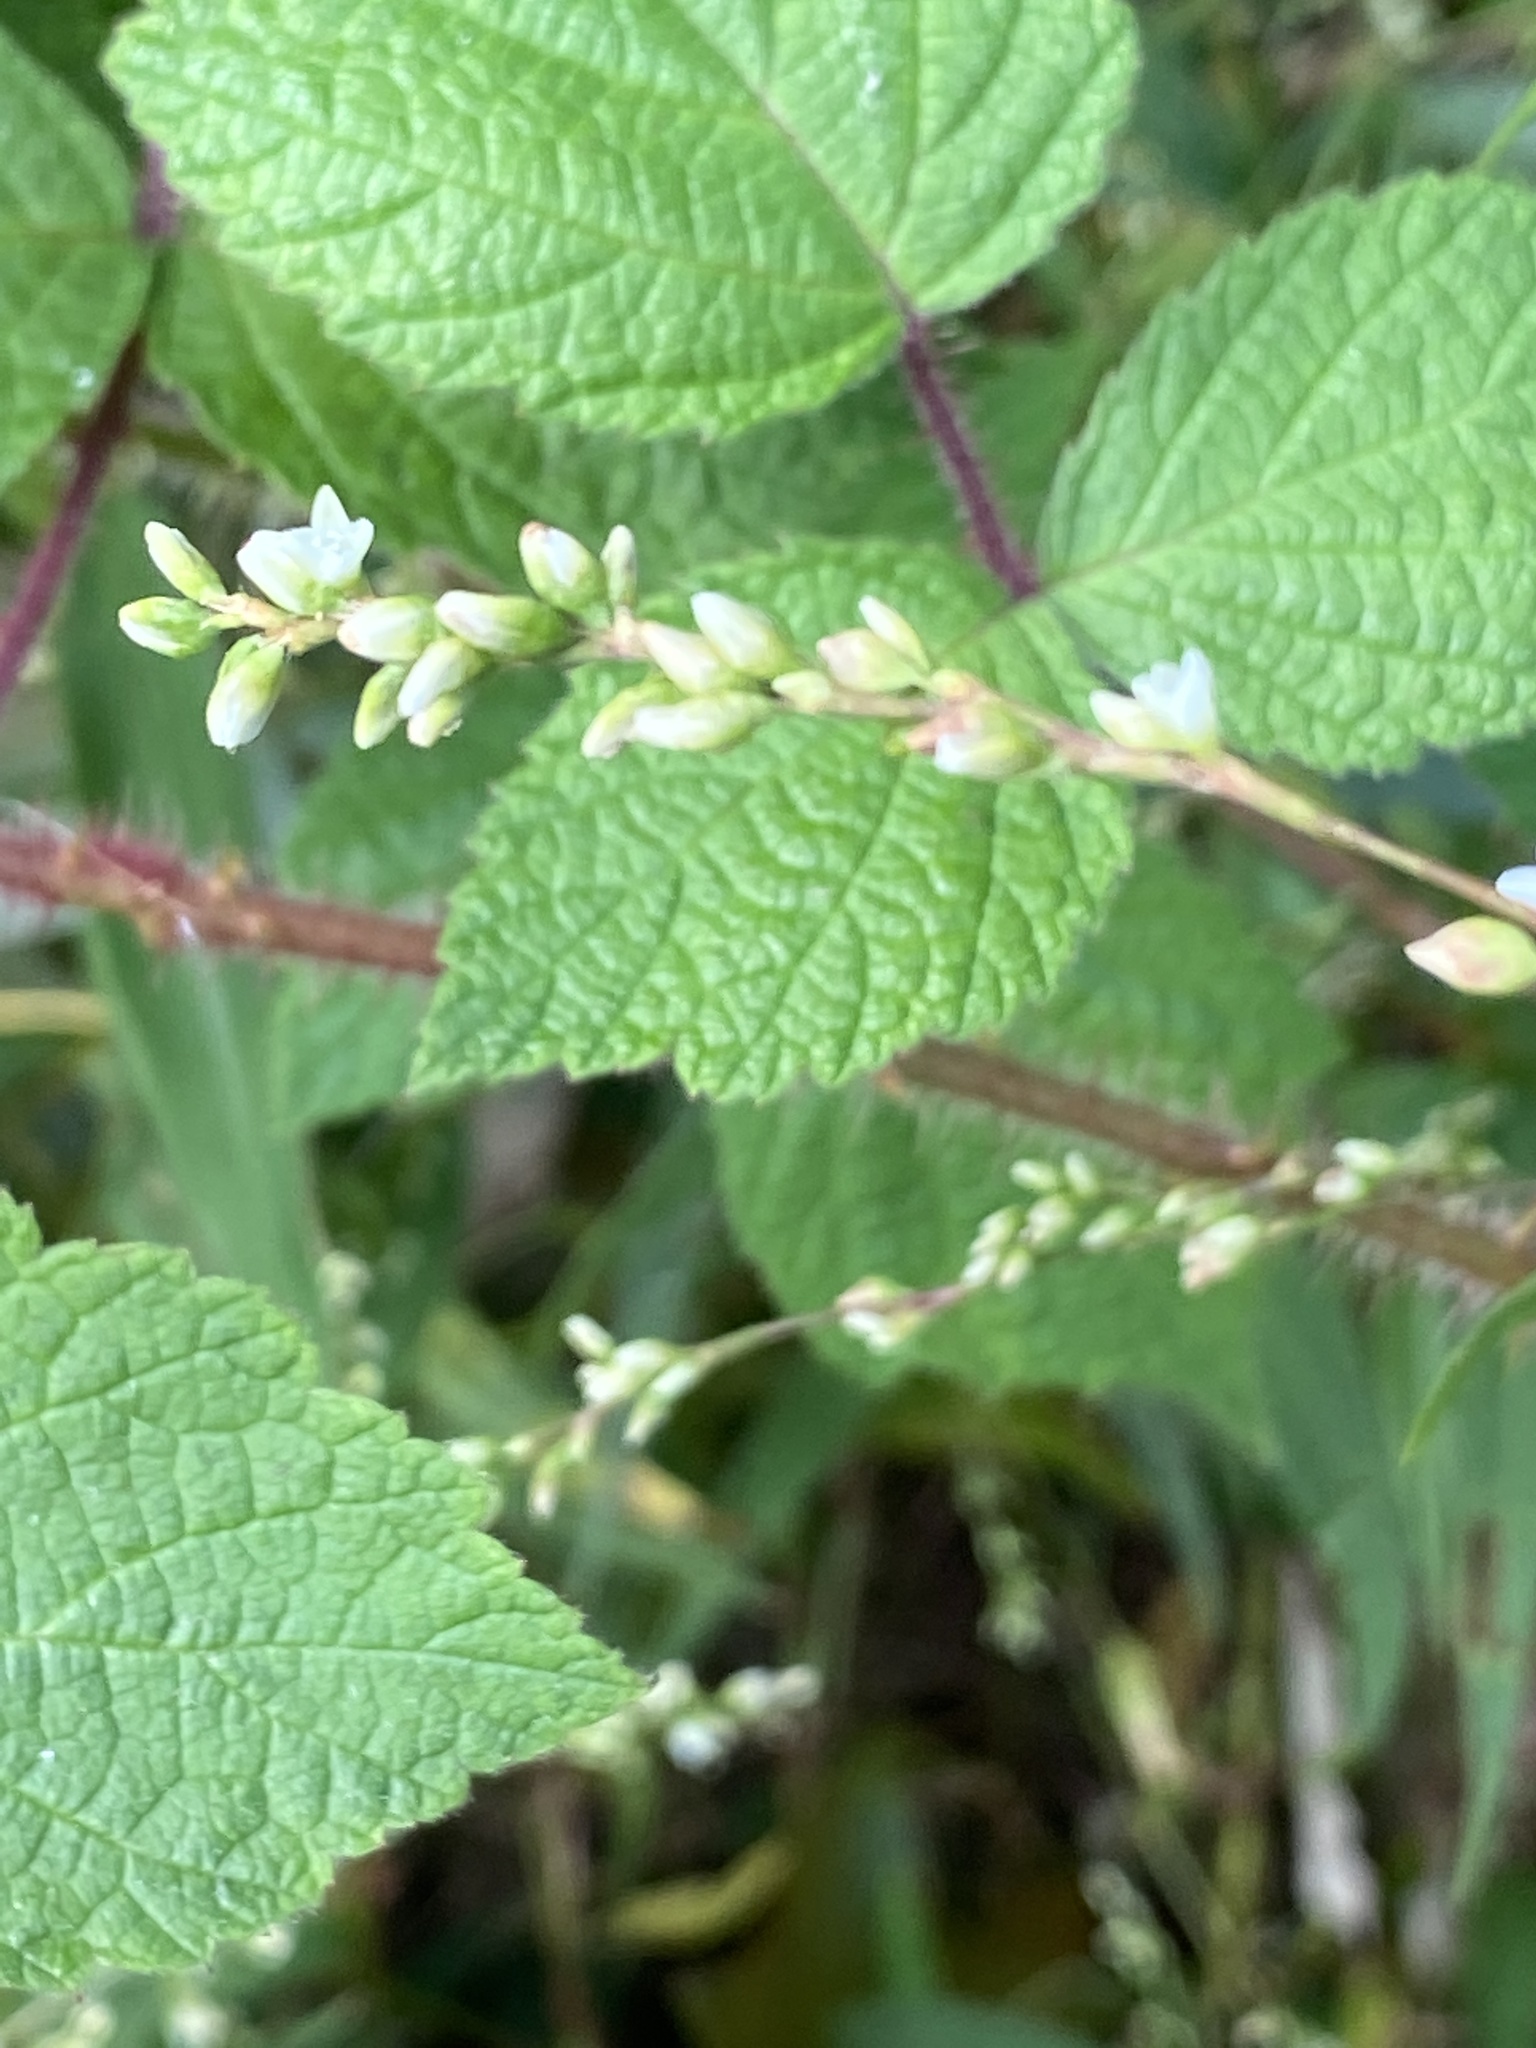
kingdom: Plantae
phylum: Tracheophyta
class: Magnoliopsida
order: Caryophyllales
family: Polygonaceae
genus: Persicaria
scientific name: Persicaria punctata
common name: Dotted smartweed
